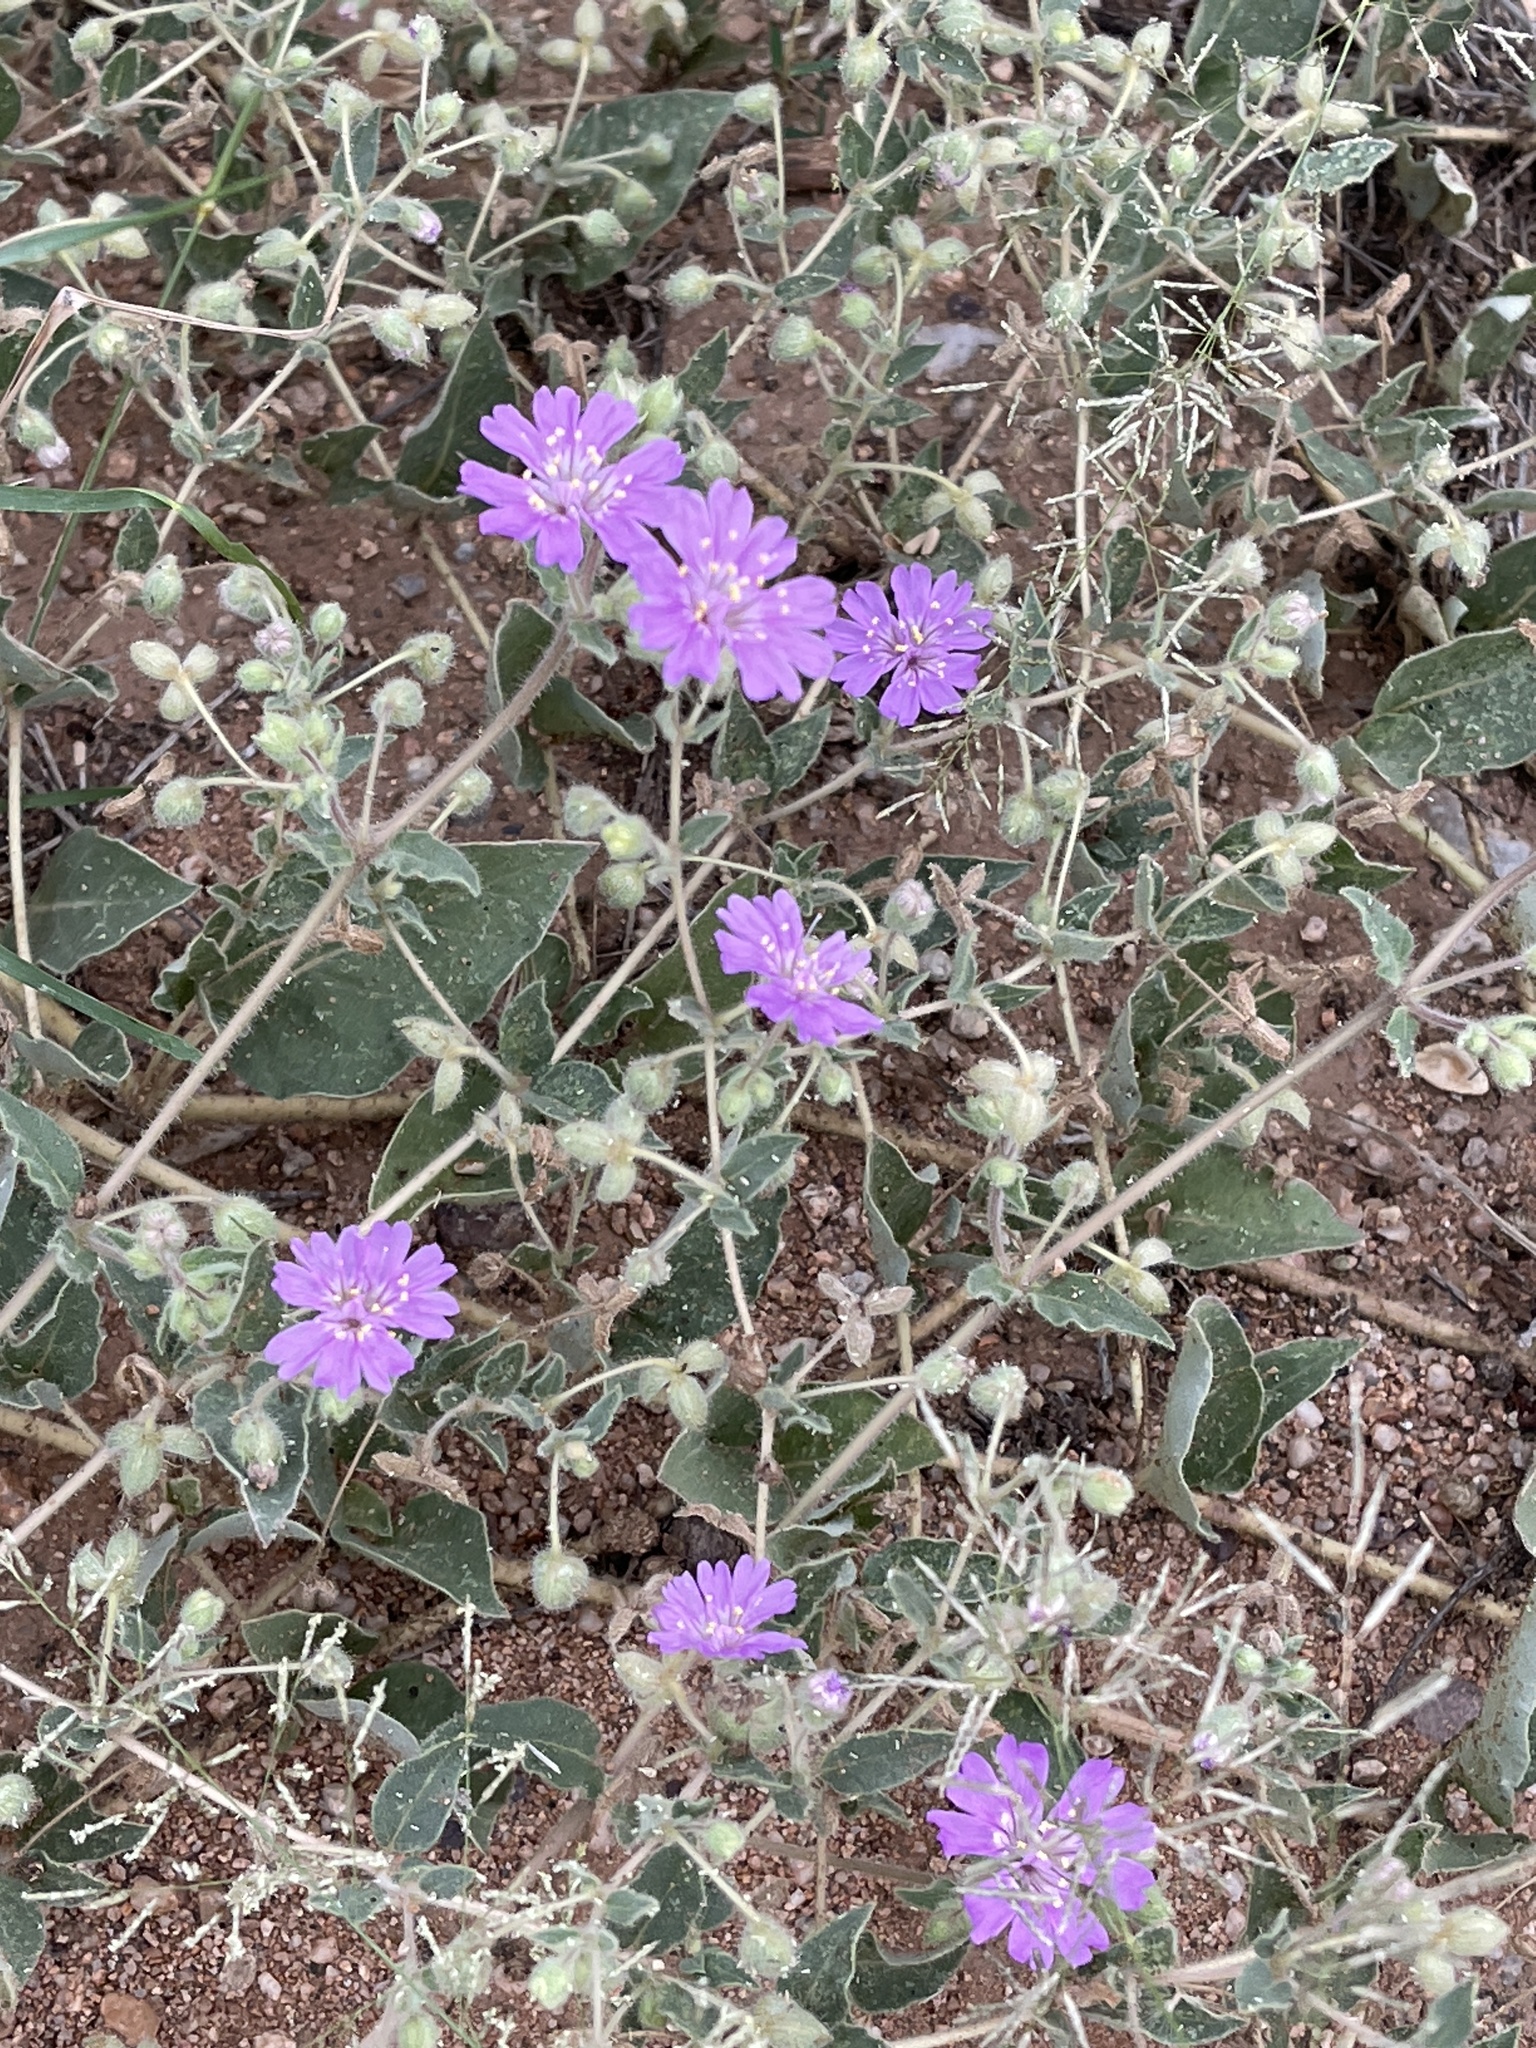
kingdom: Plantae
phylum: Tracheophyta
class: Magnoliopsida
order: Caryophyllales
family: Nyctaginaceae
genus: Allionia
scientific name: Allionia incarnata
